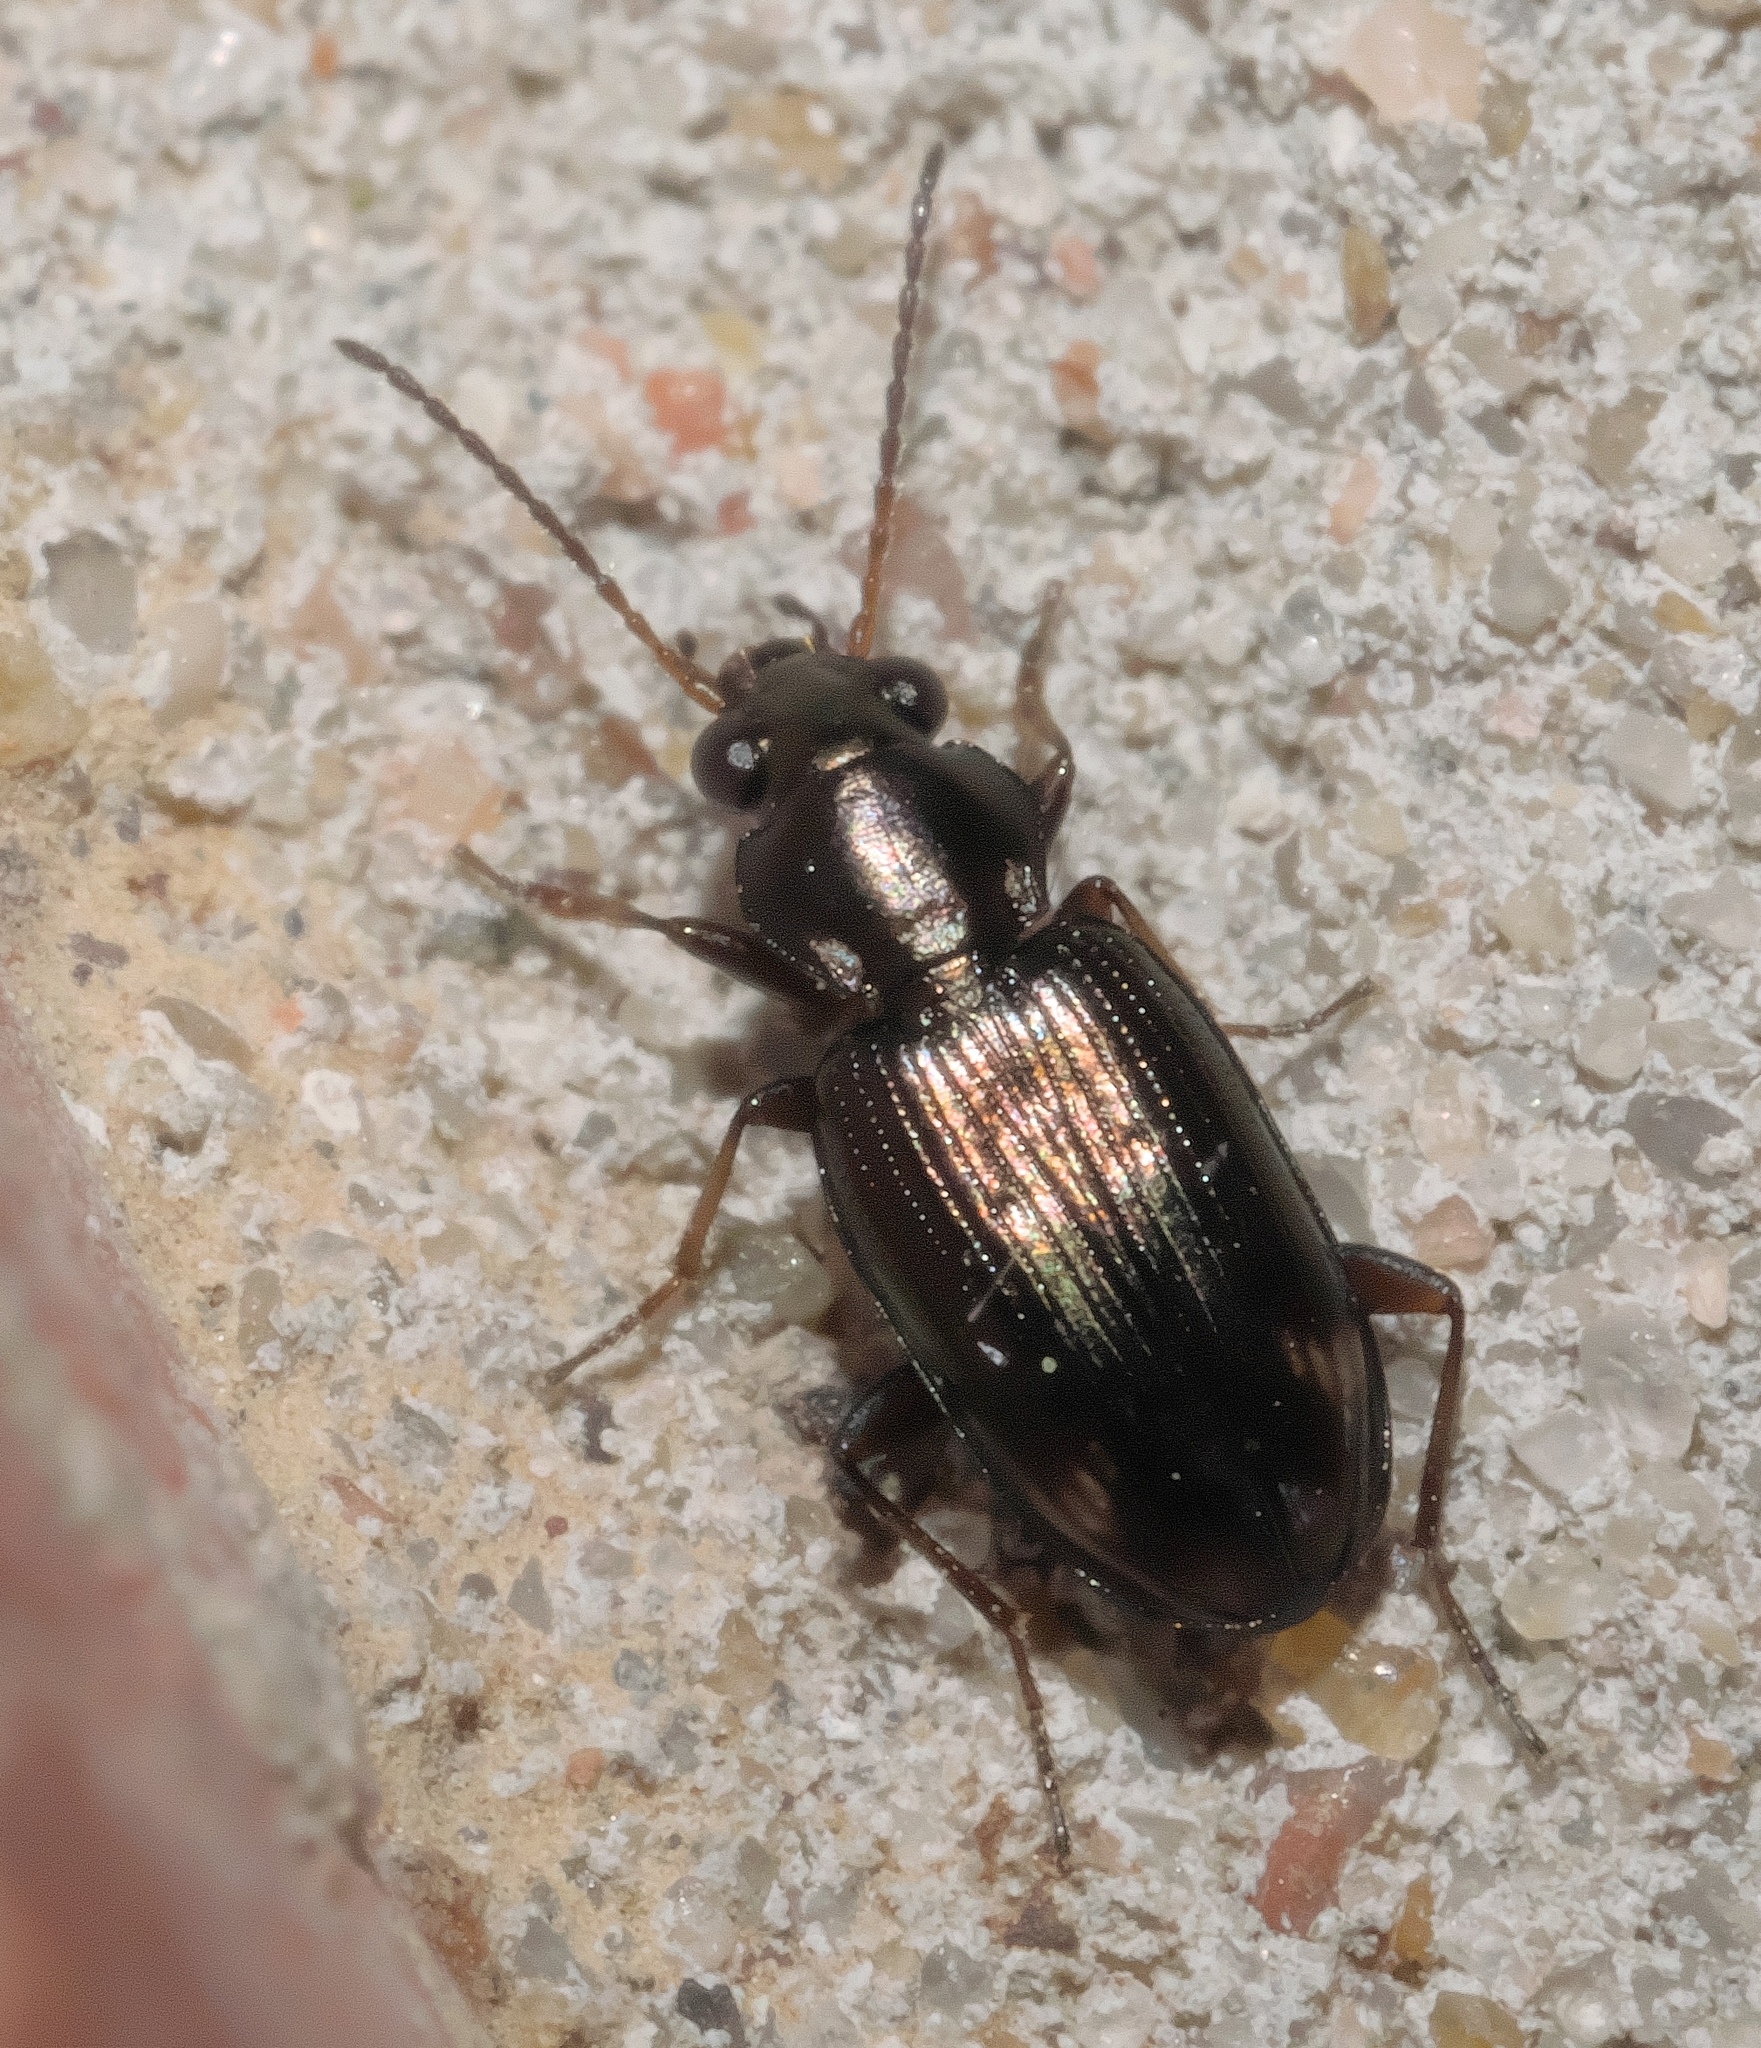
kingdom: Animalia
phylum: Arthropoda
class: Insecta
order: Coleoptera
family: Carabidae
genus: Bembidion
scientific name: Bembidion rapidum
